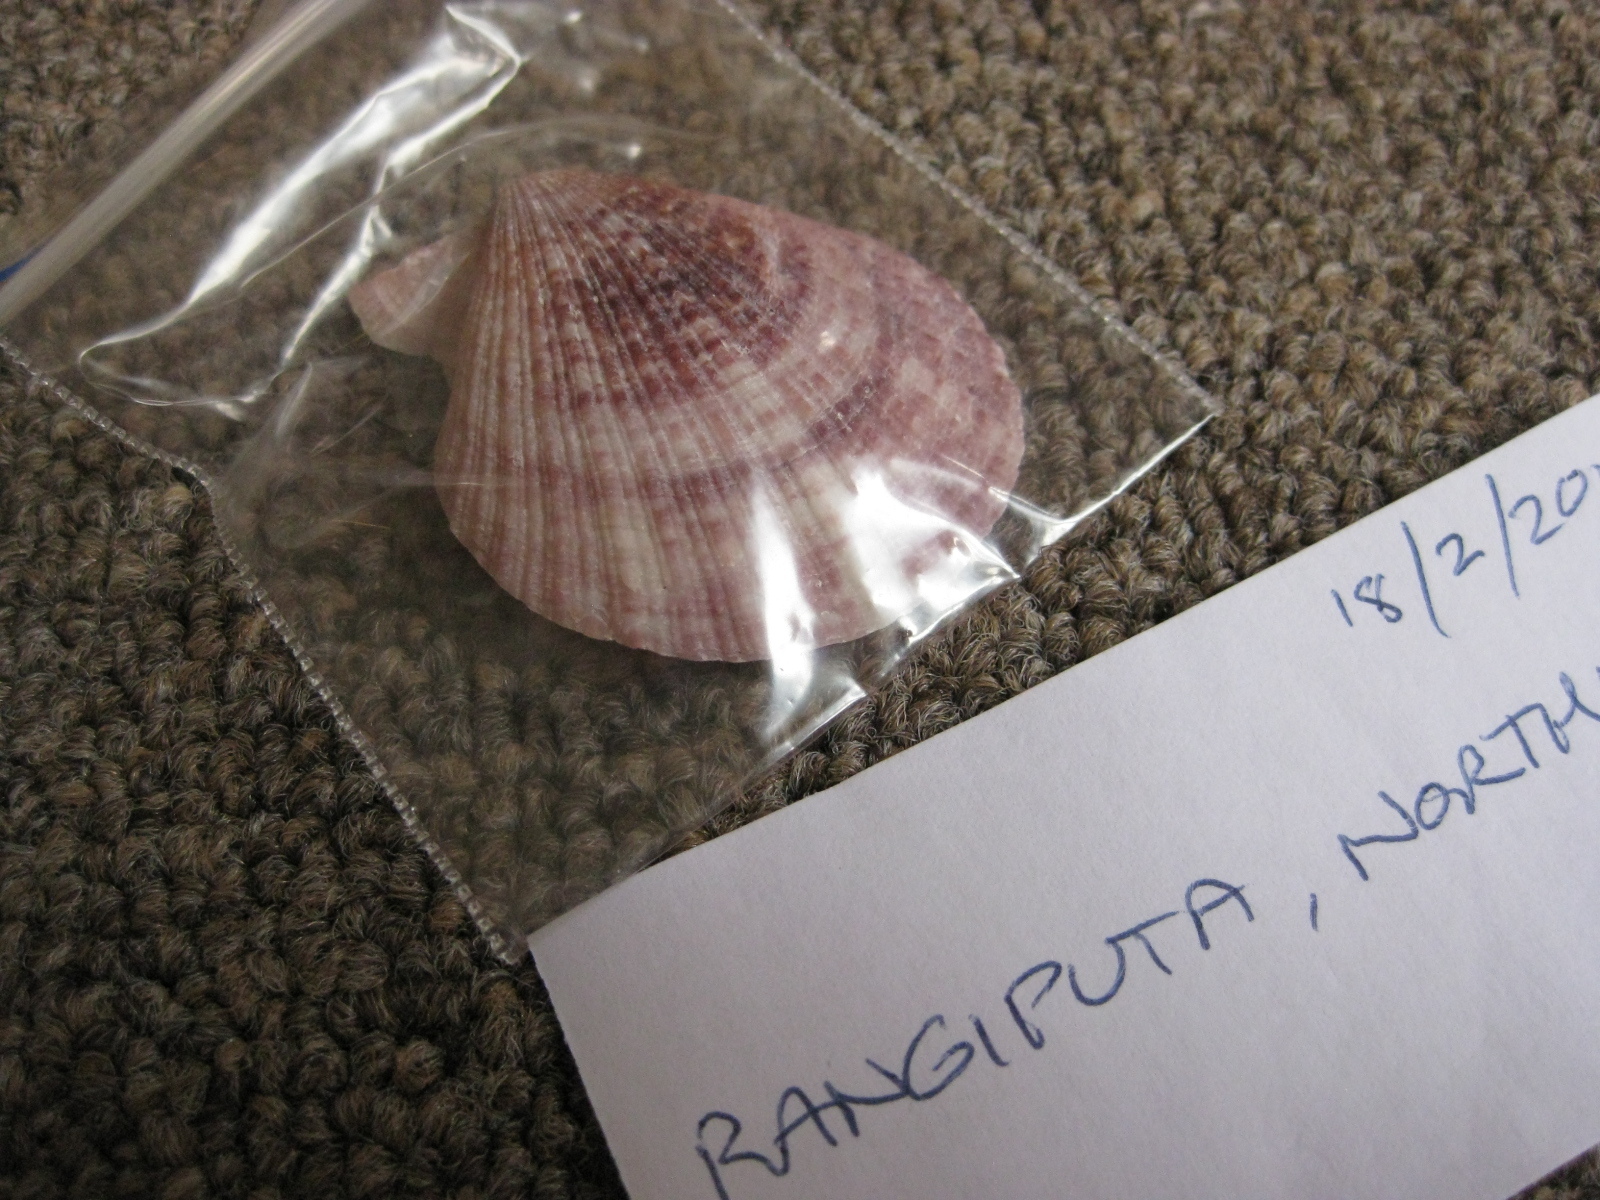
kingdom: Animalia
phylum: Mollusca
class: Bivalvia
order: Pectinida
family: Pectinidae
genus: Talochlamys
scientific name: Talochlamys zelandiae
